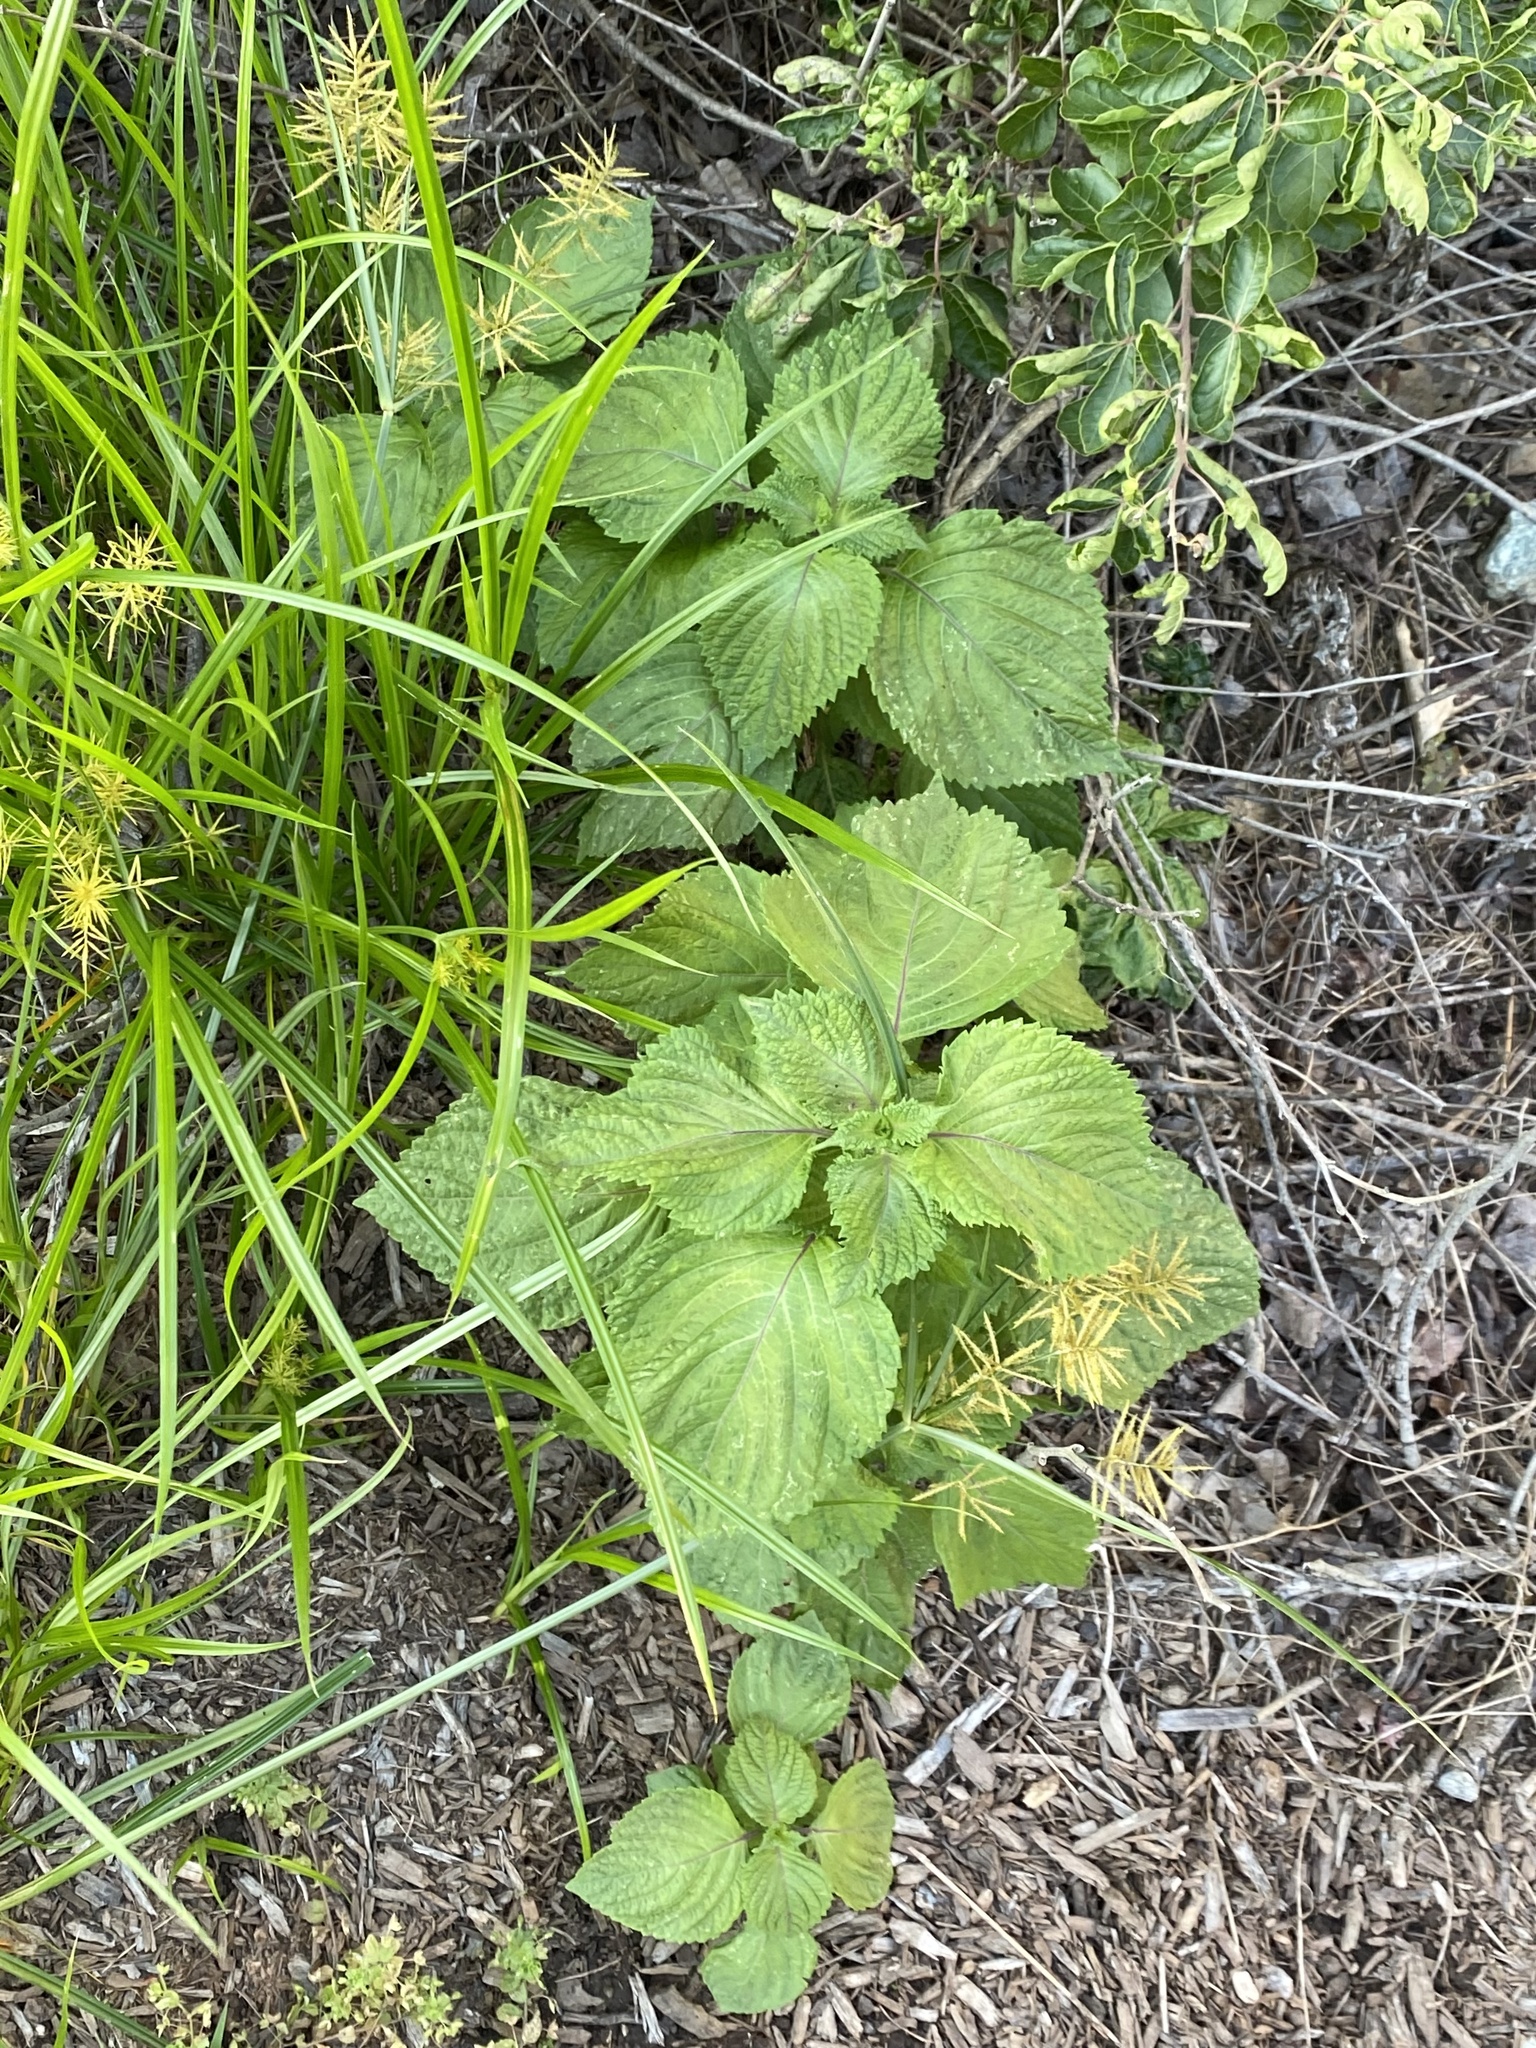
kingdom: Plantae
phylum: Tracheophyta
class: Magnoliopsida
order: Lamiales
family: Lamiaceae
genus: Perilla
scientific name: Perilla frutescens
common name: Perilla
